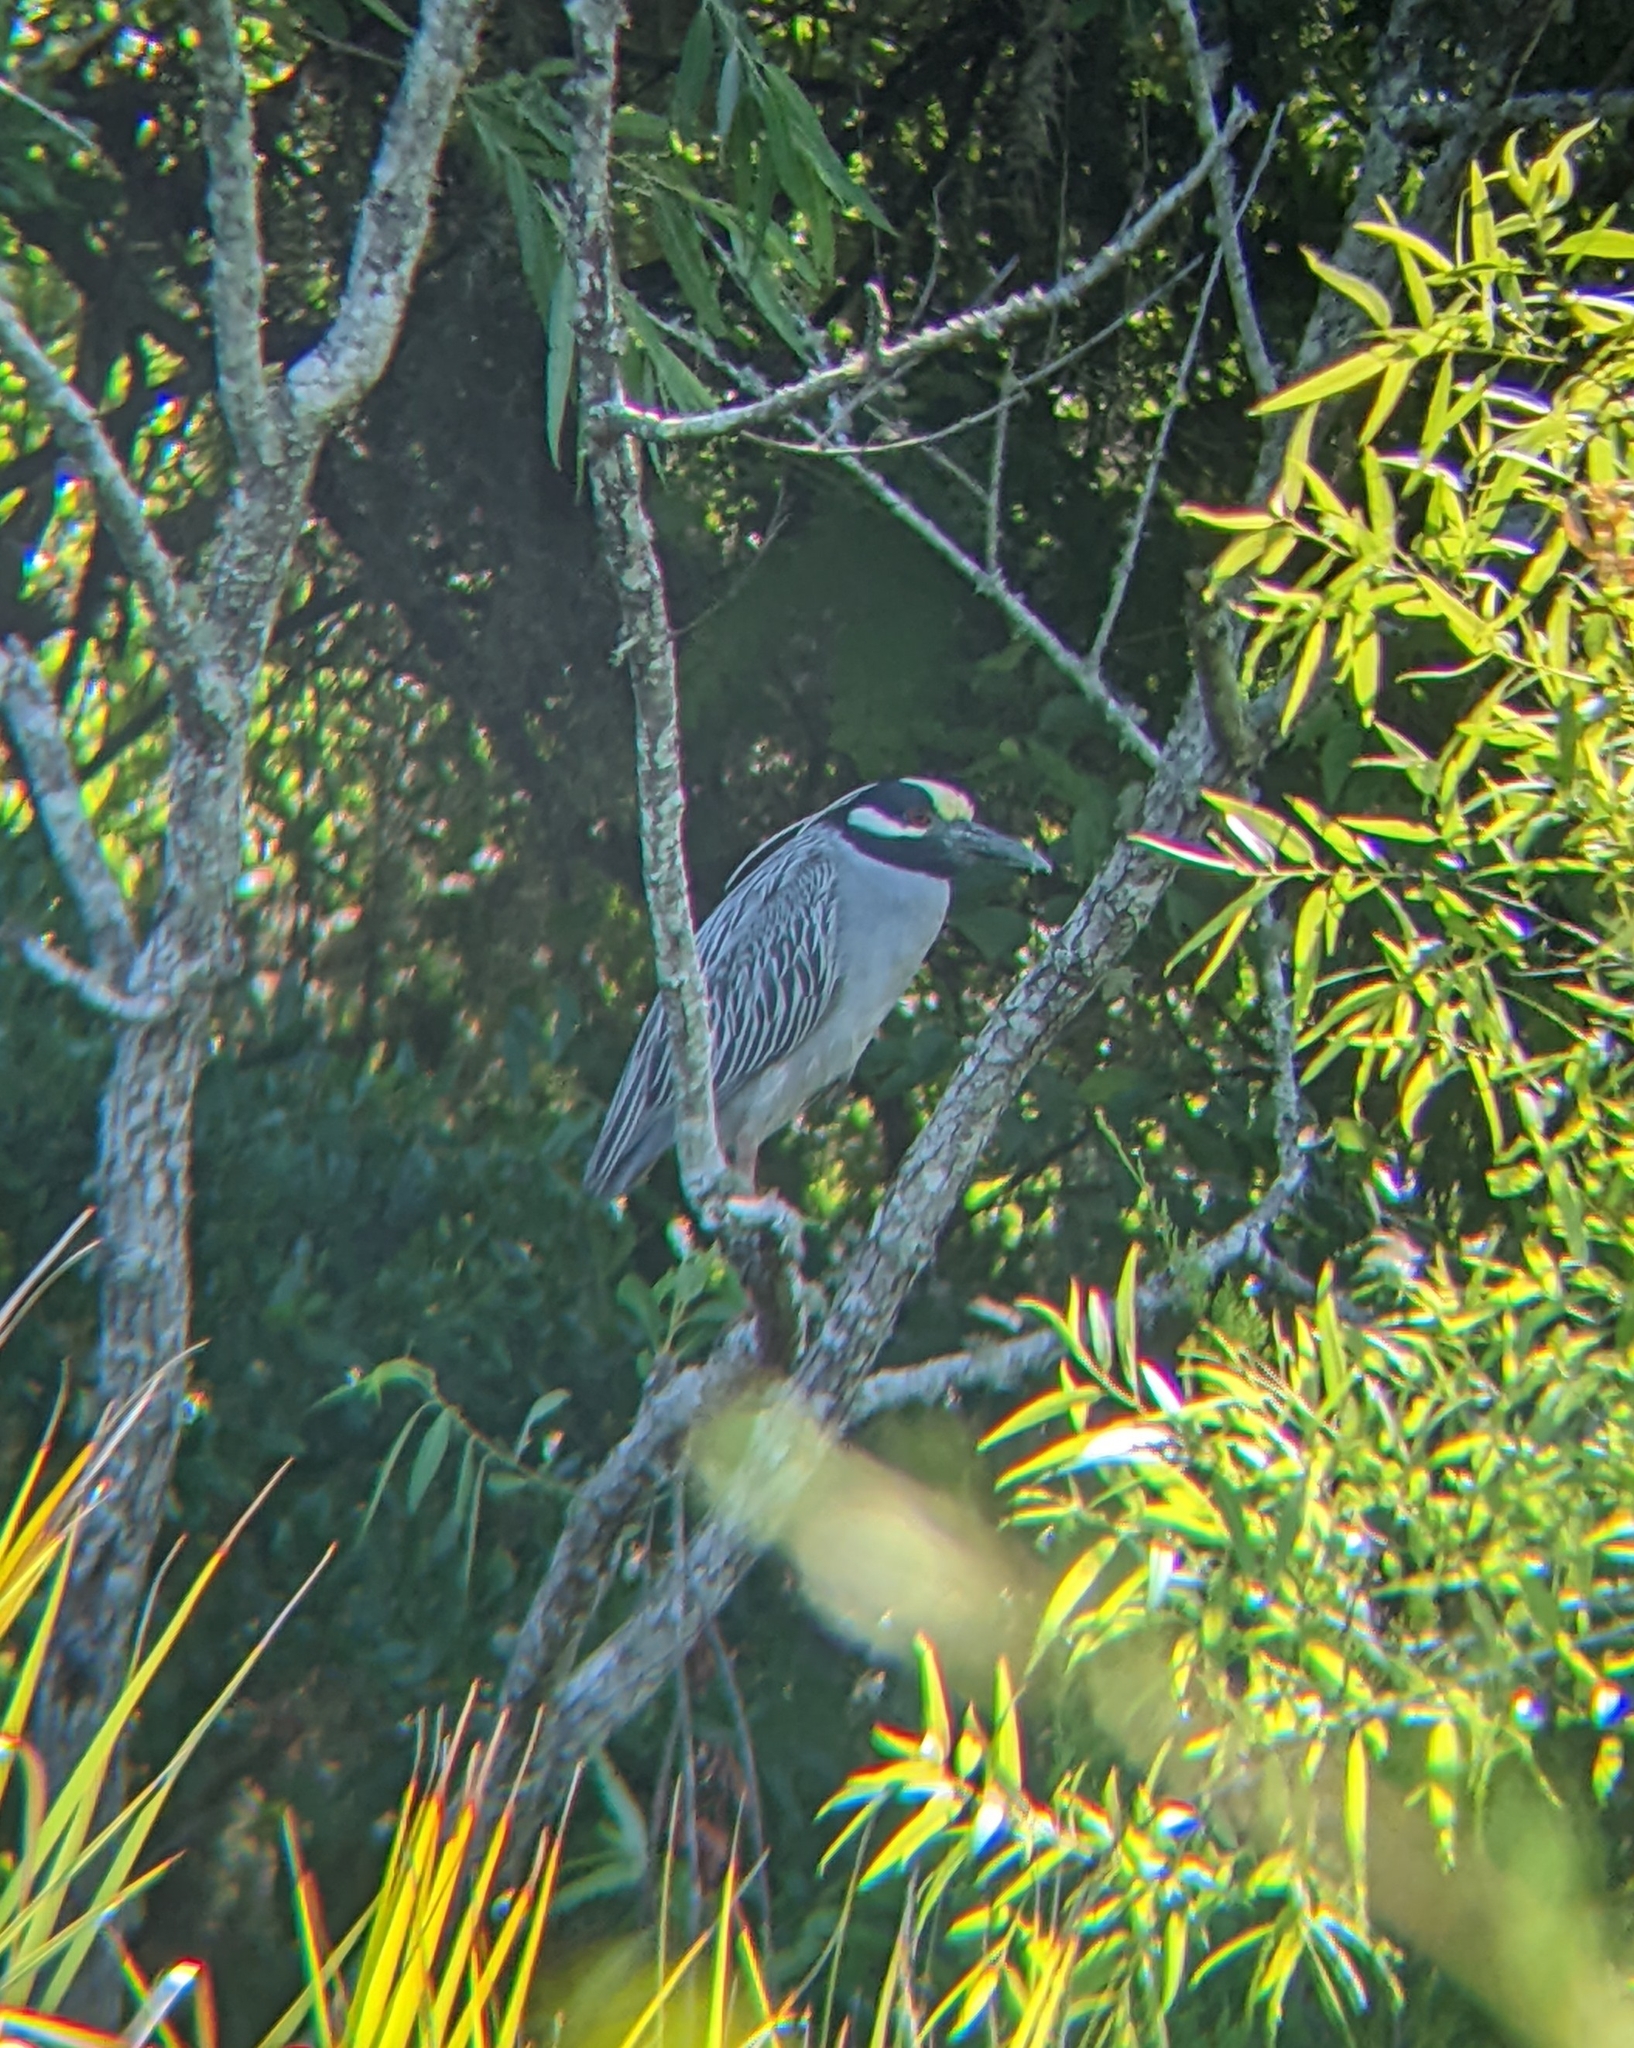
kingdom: Animalia
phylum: Chordata
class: Aves
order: Pelecaniformes
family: Ardeidae
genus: Nyctanassa
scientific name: Nyctanassa violacea
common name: Yellow-crowned night heron
